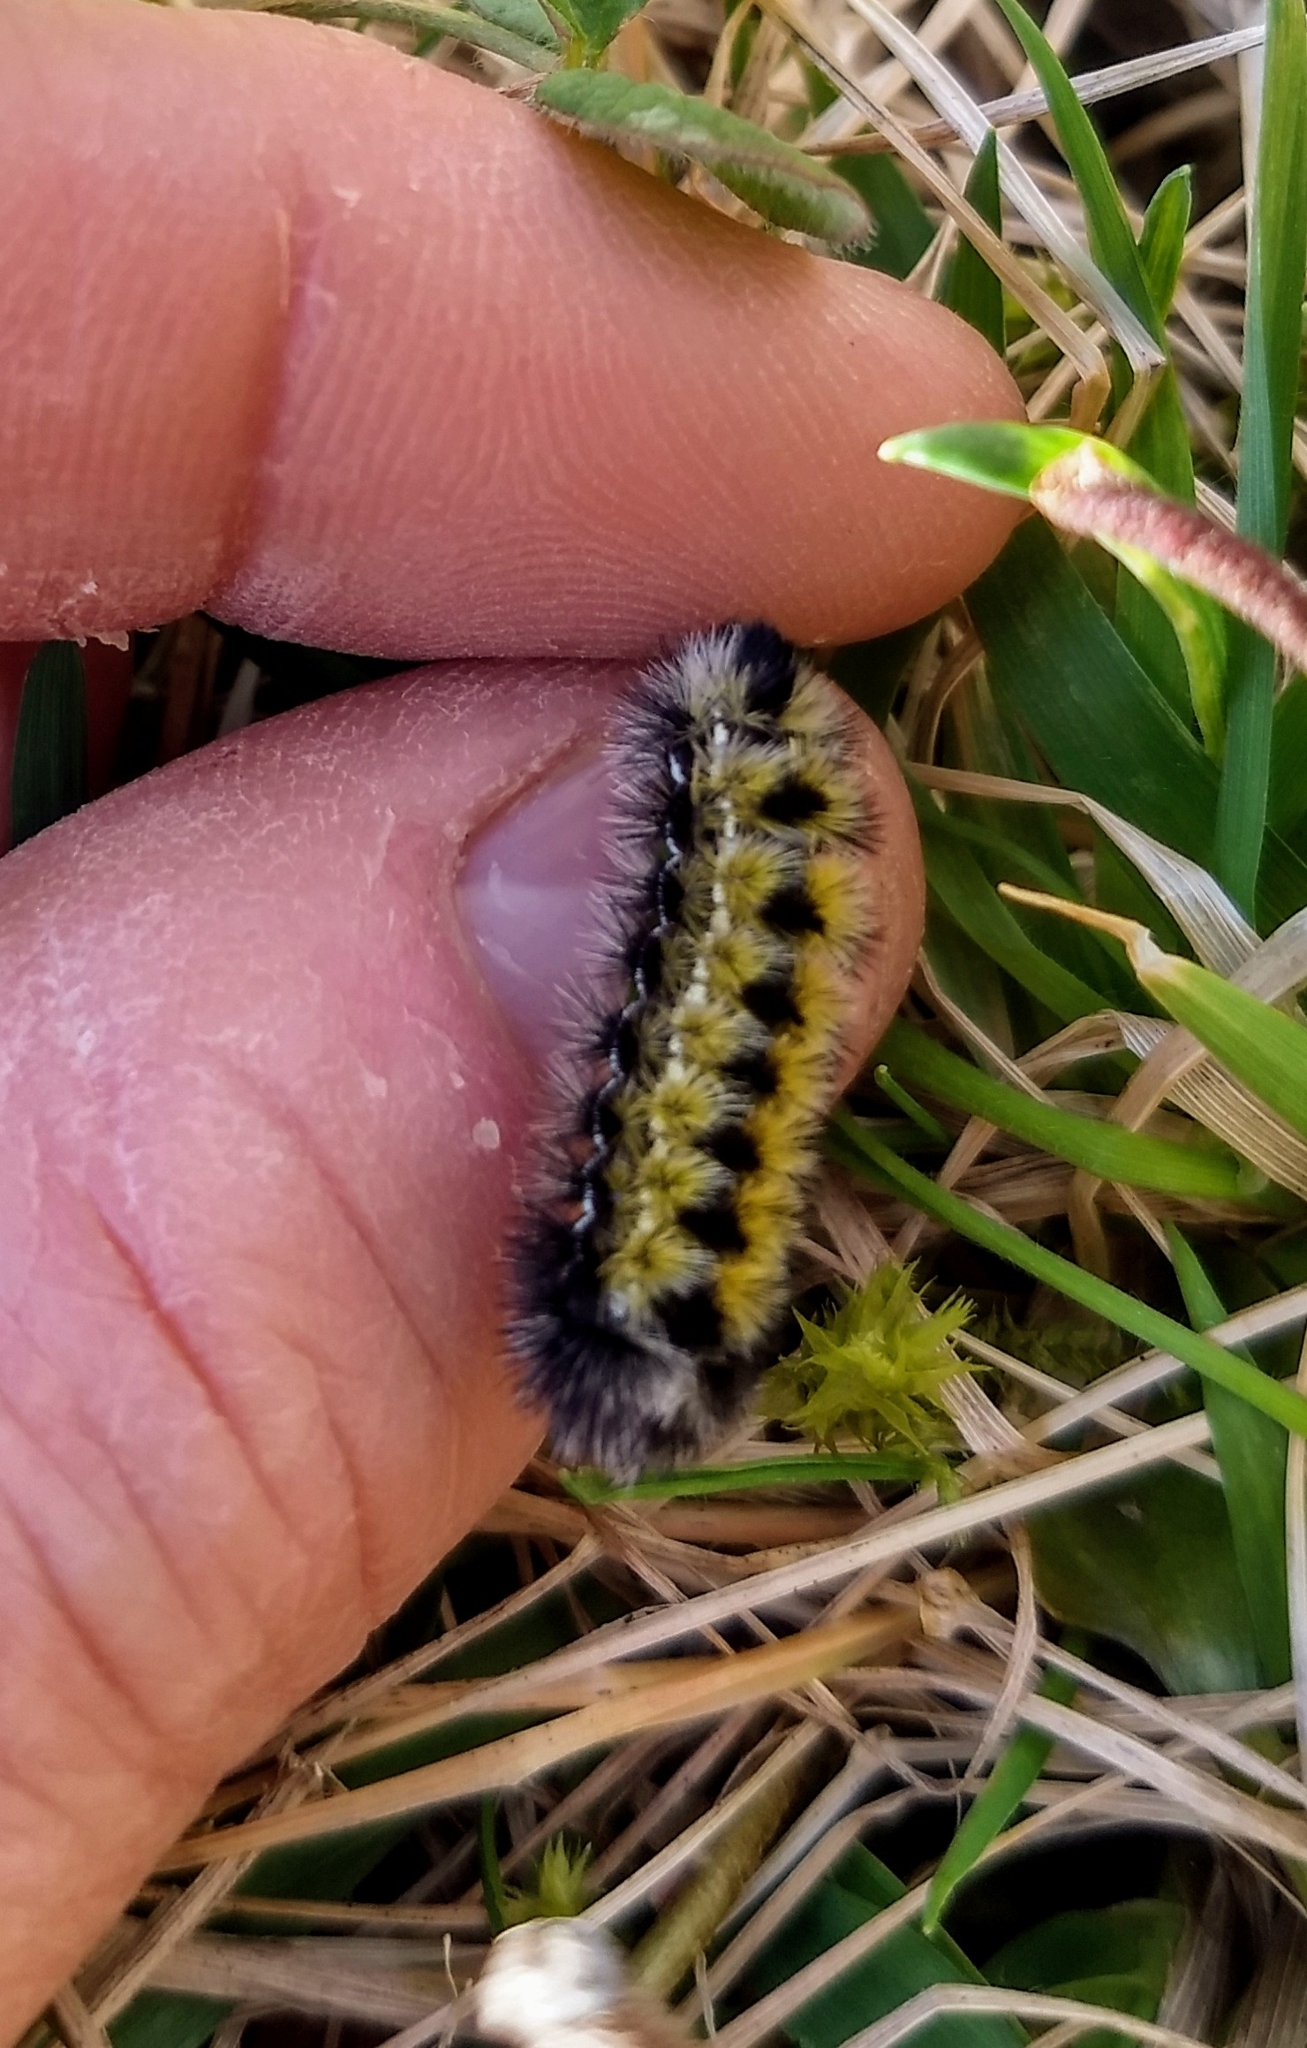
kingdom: Animalia
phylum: Arthropoda
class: Insecta
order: Lepidoptera
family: Erebidae
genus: Ctenucha
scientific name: Ctenucha virginica
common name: Virginia ctenucha moth
